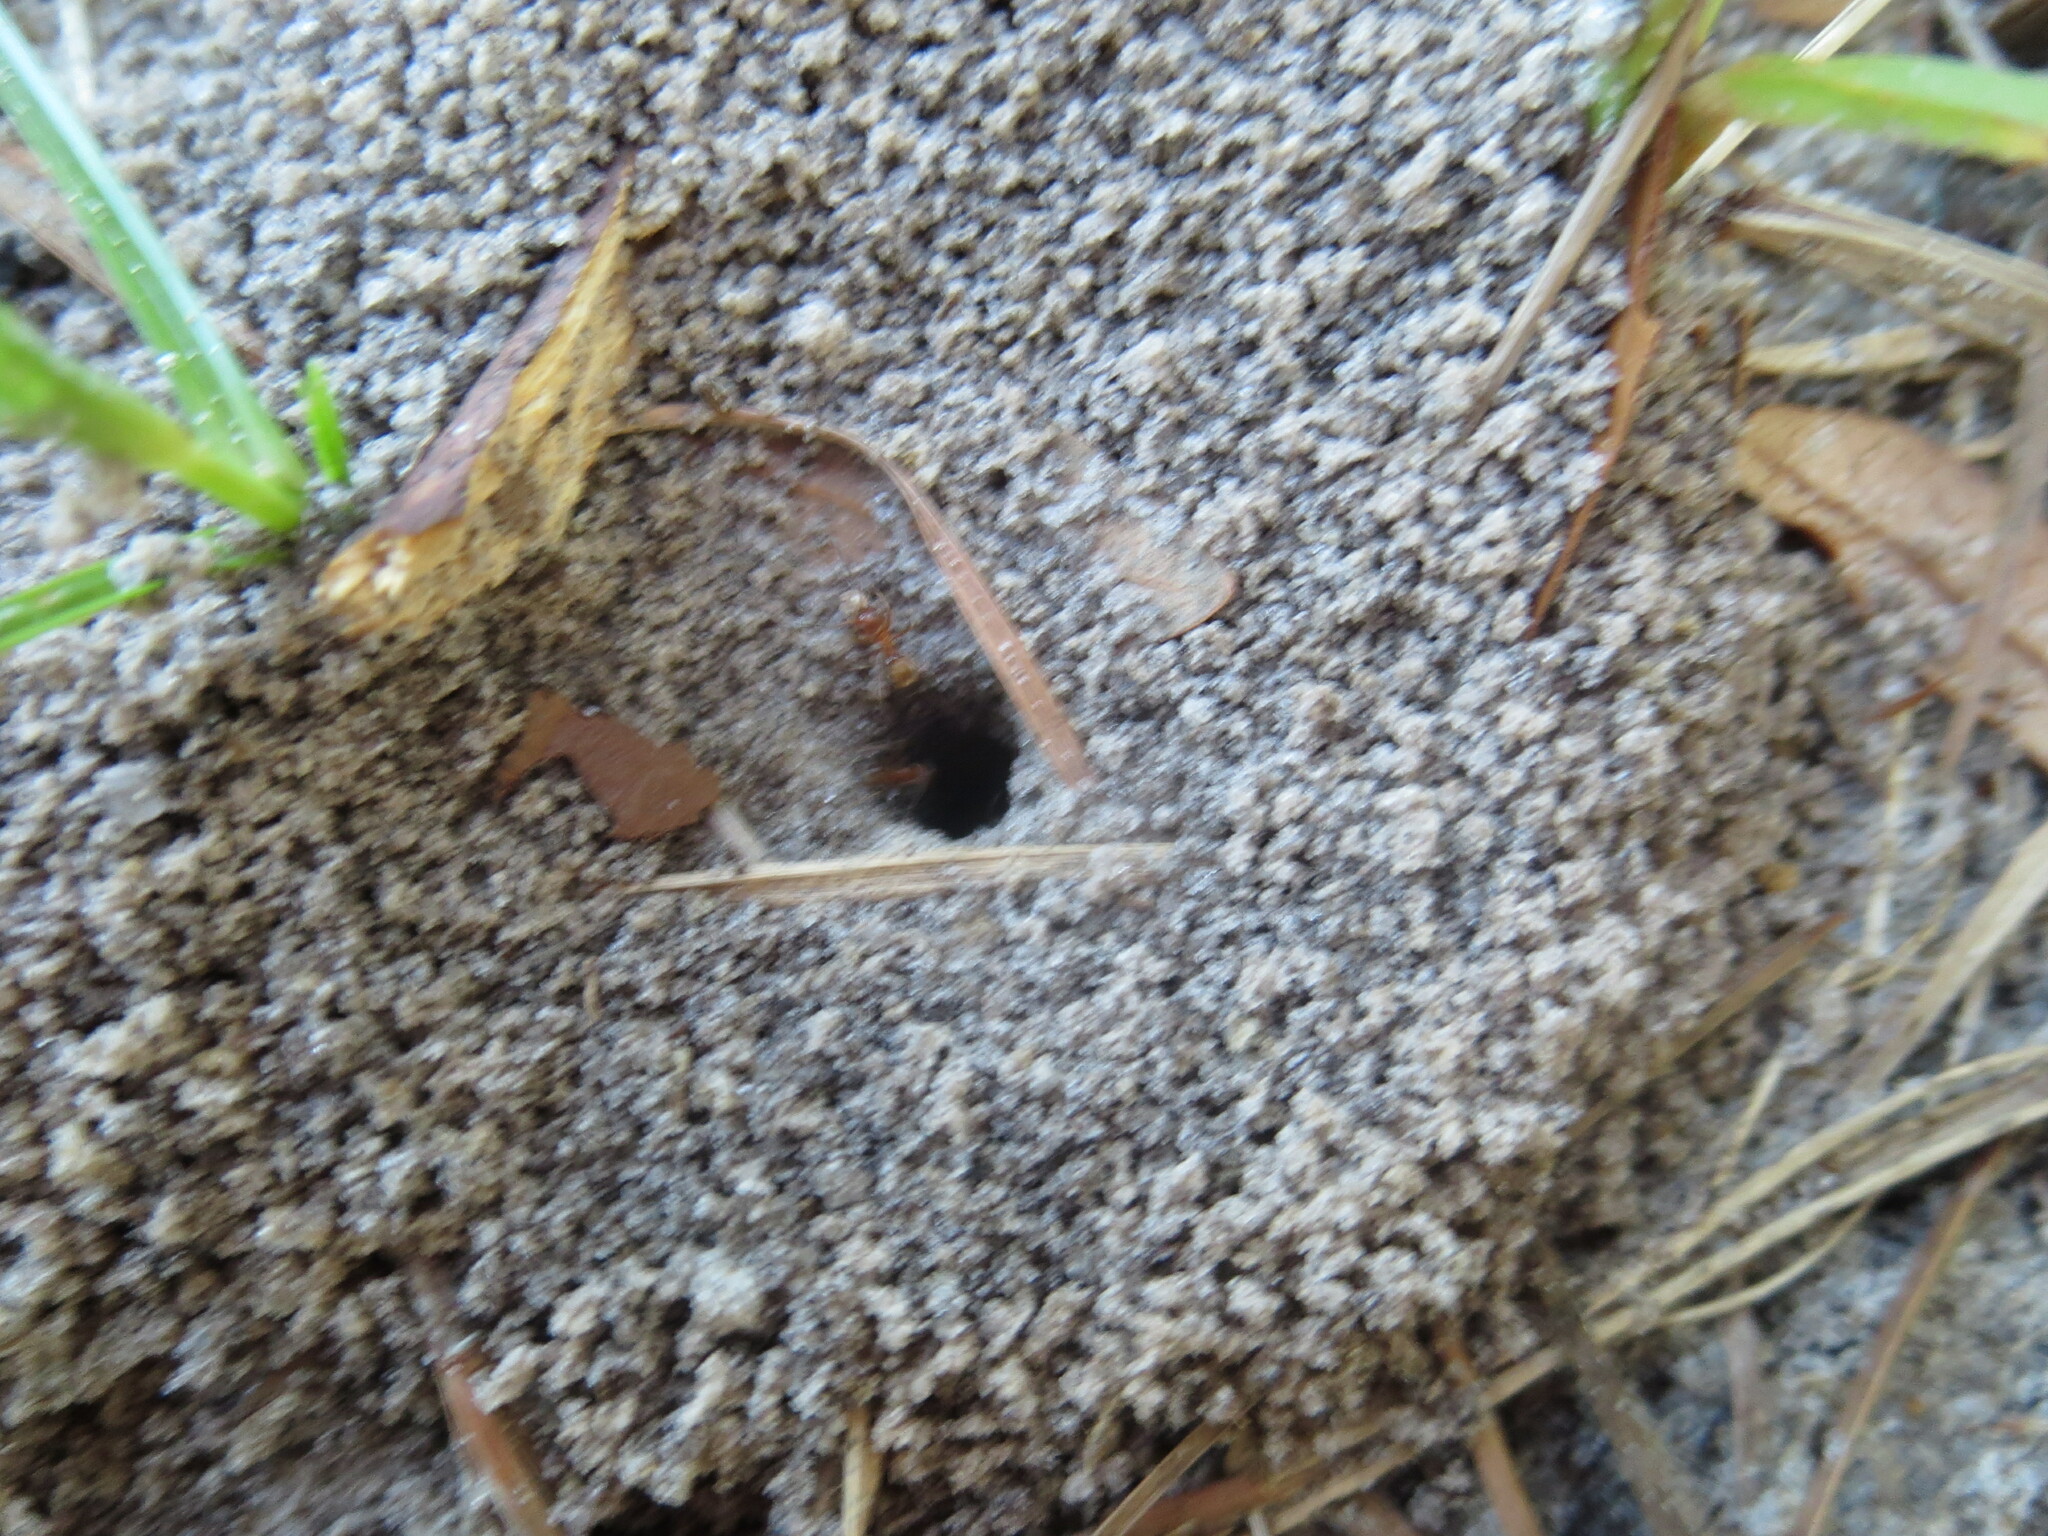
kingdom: Animalia
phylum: Arthropoda
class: Insecta
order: Hymenoptera
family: Formicidae
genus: Dorymyrmex
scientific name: Dorymyrmex bureni
